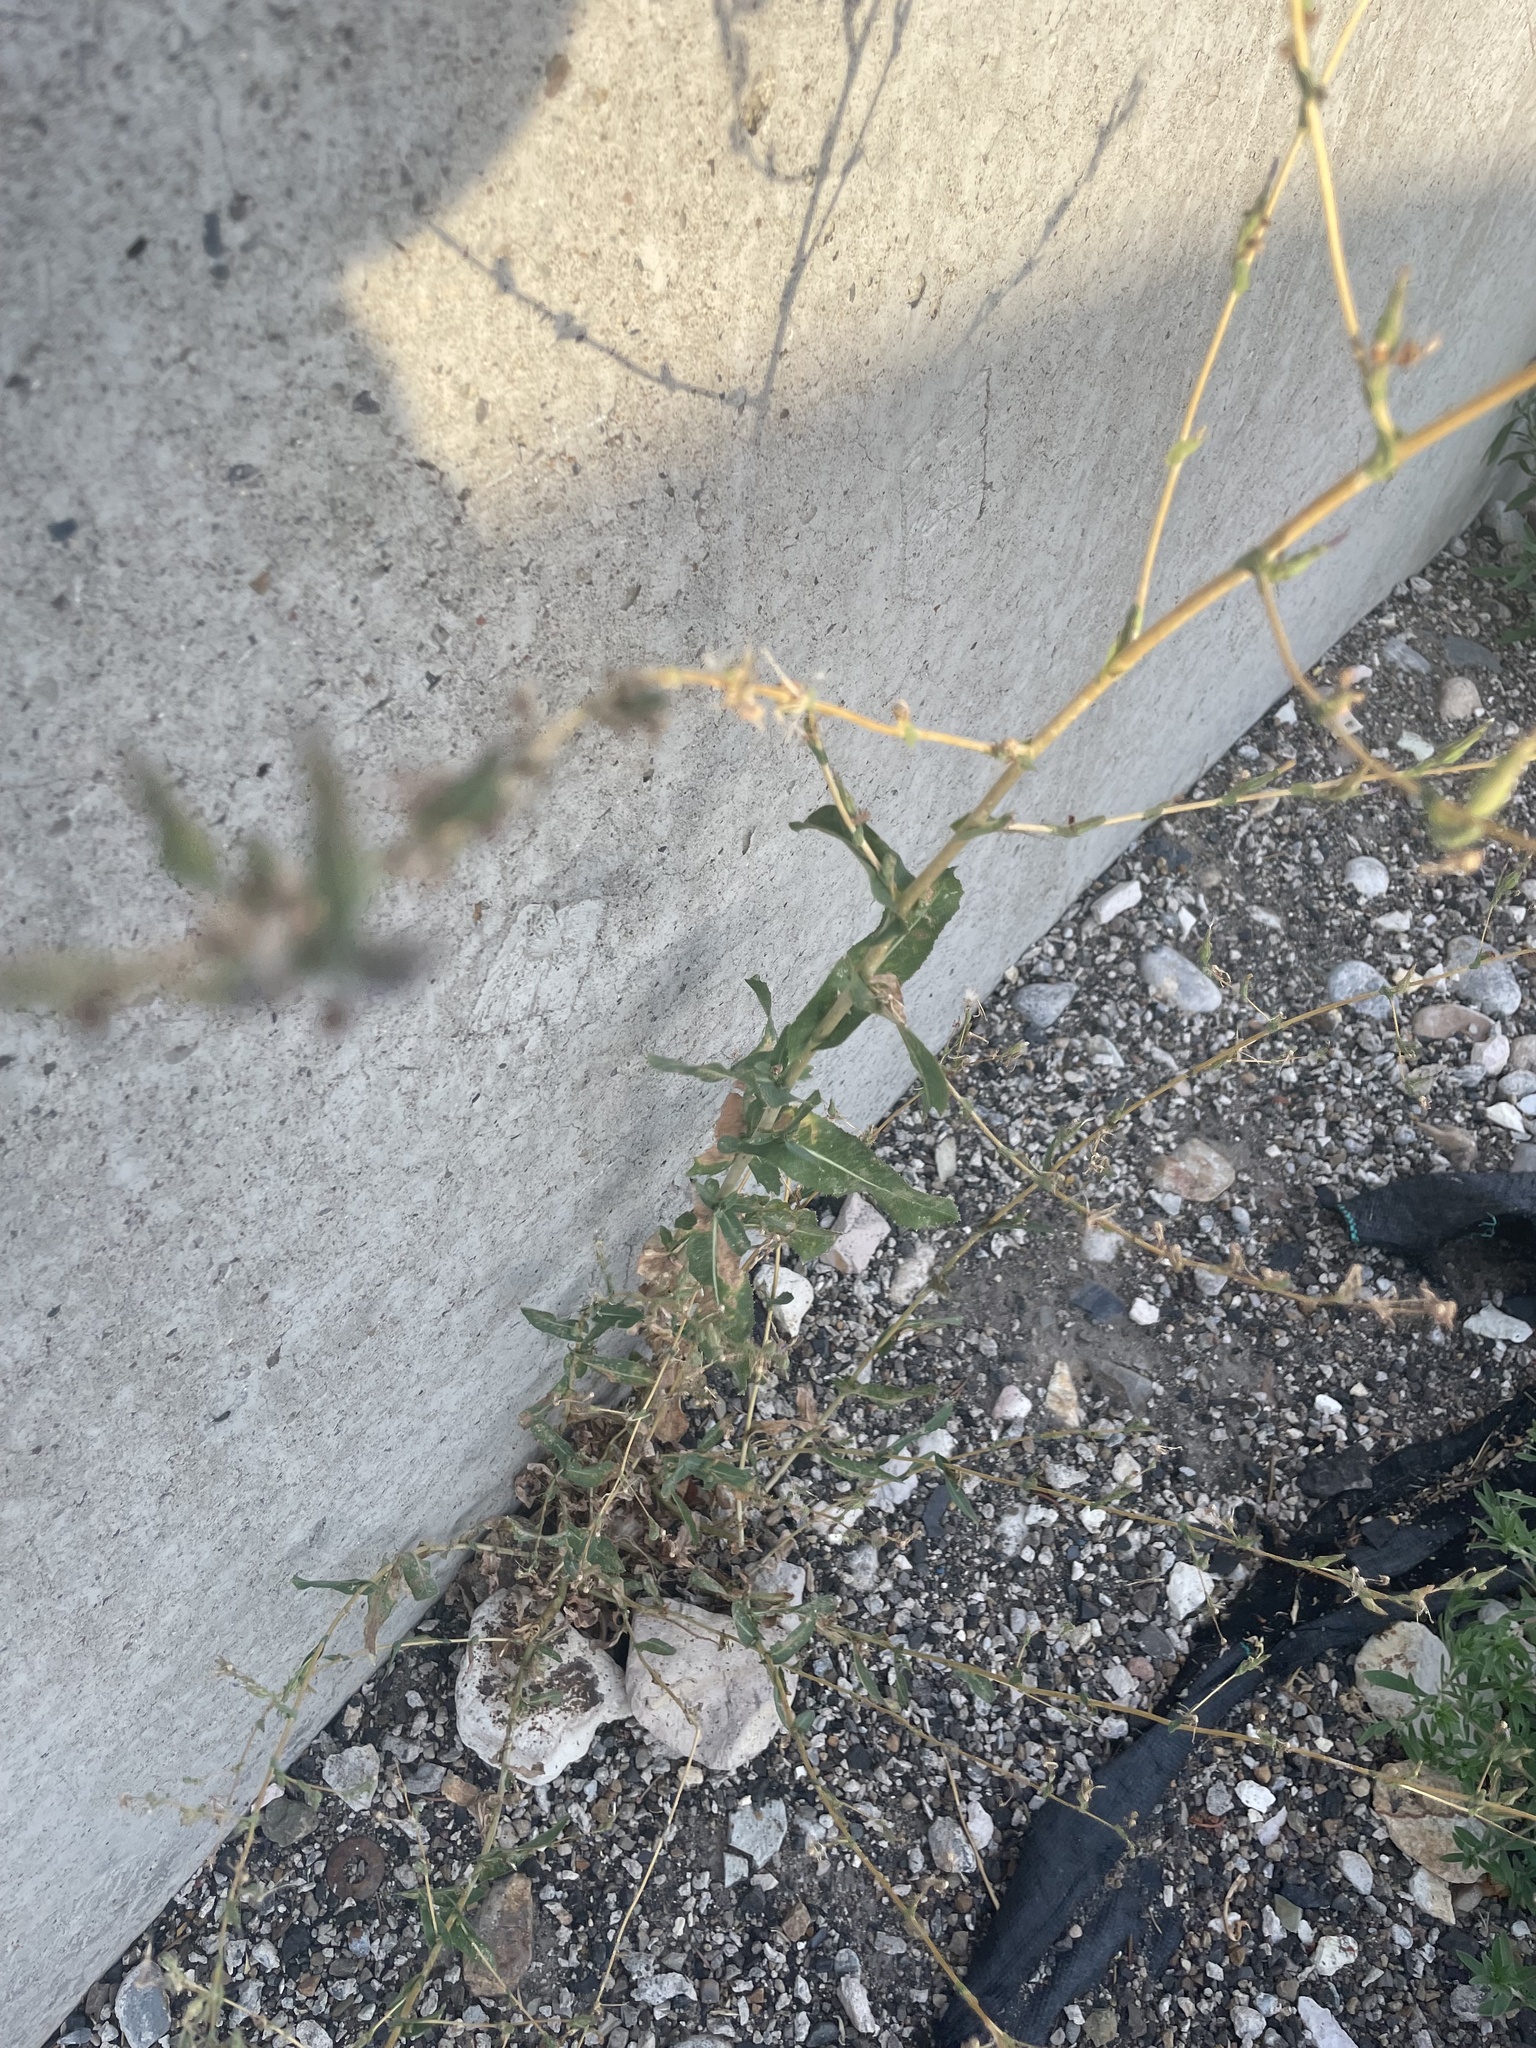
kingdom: Plantae
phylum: Tracheophyta
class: Magnoliopsida
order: Asterales
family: Asteraceae
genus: Lactuca
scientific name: Lactuca serriola
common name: Prickly lettuce
